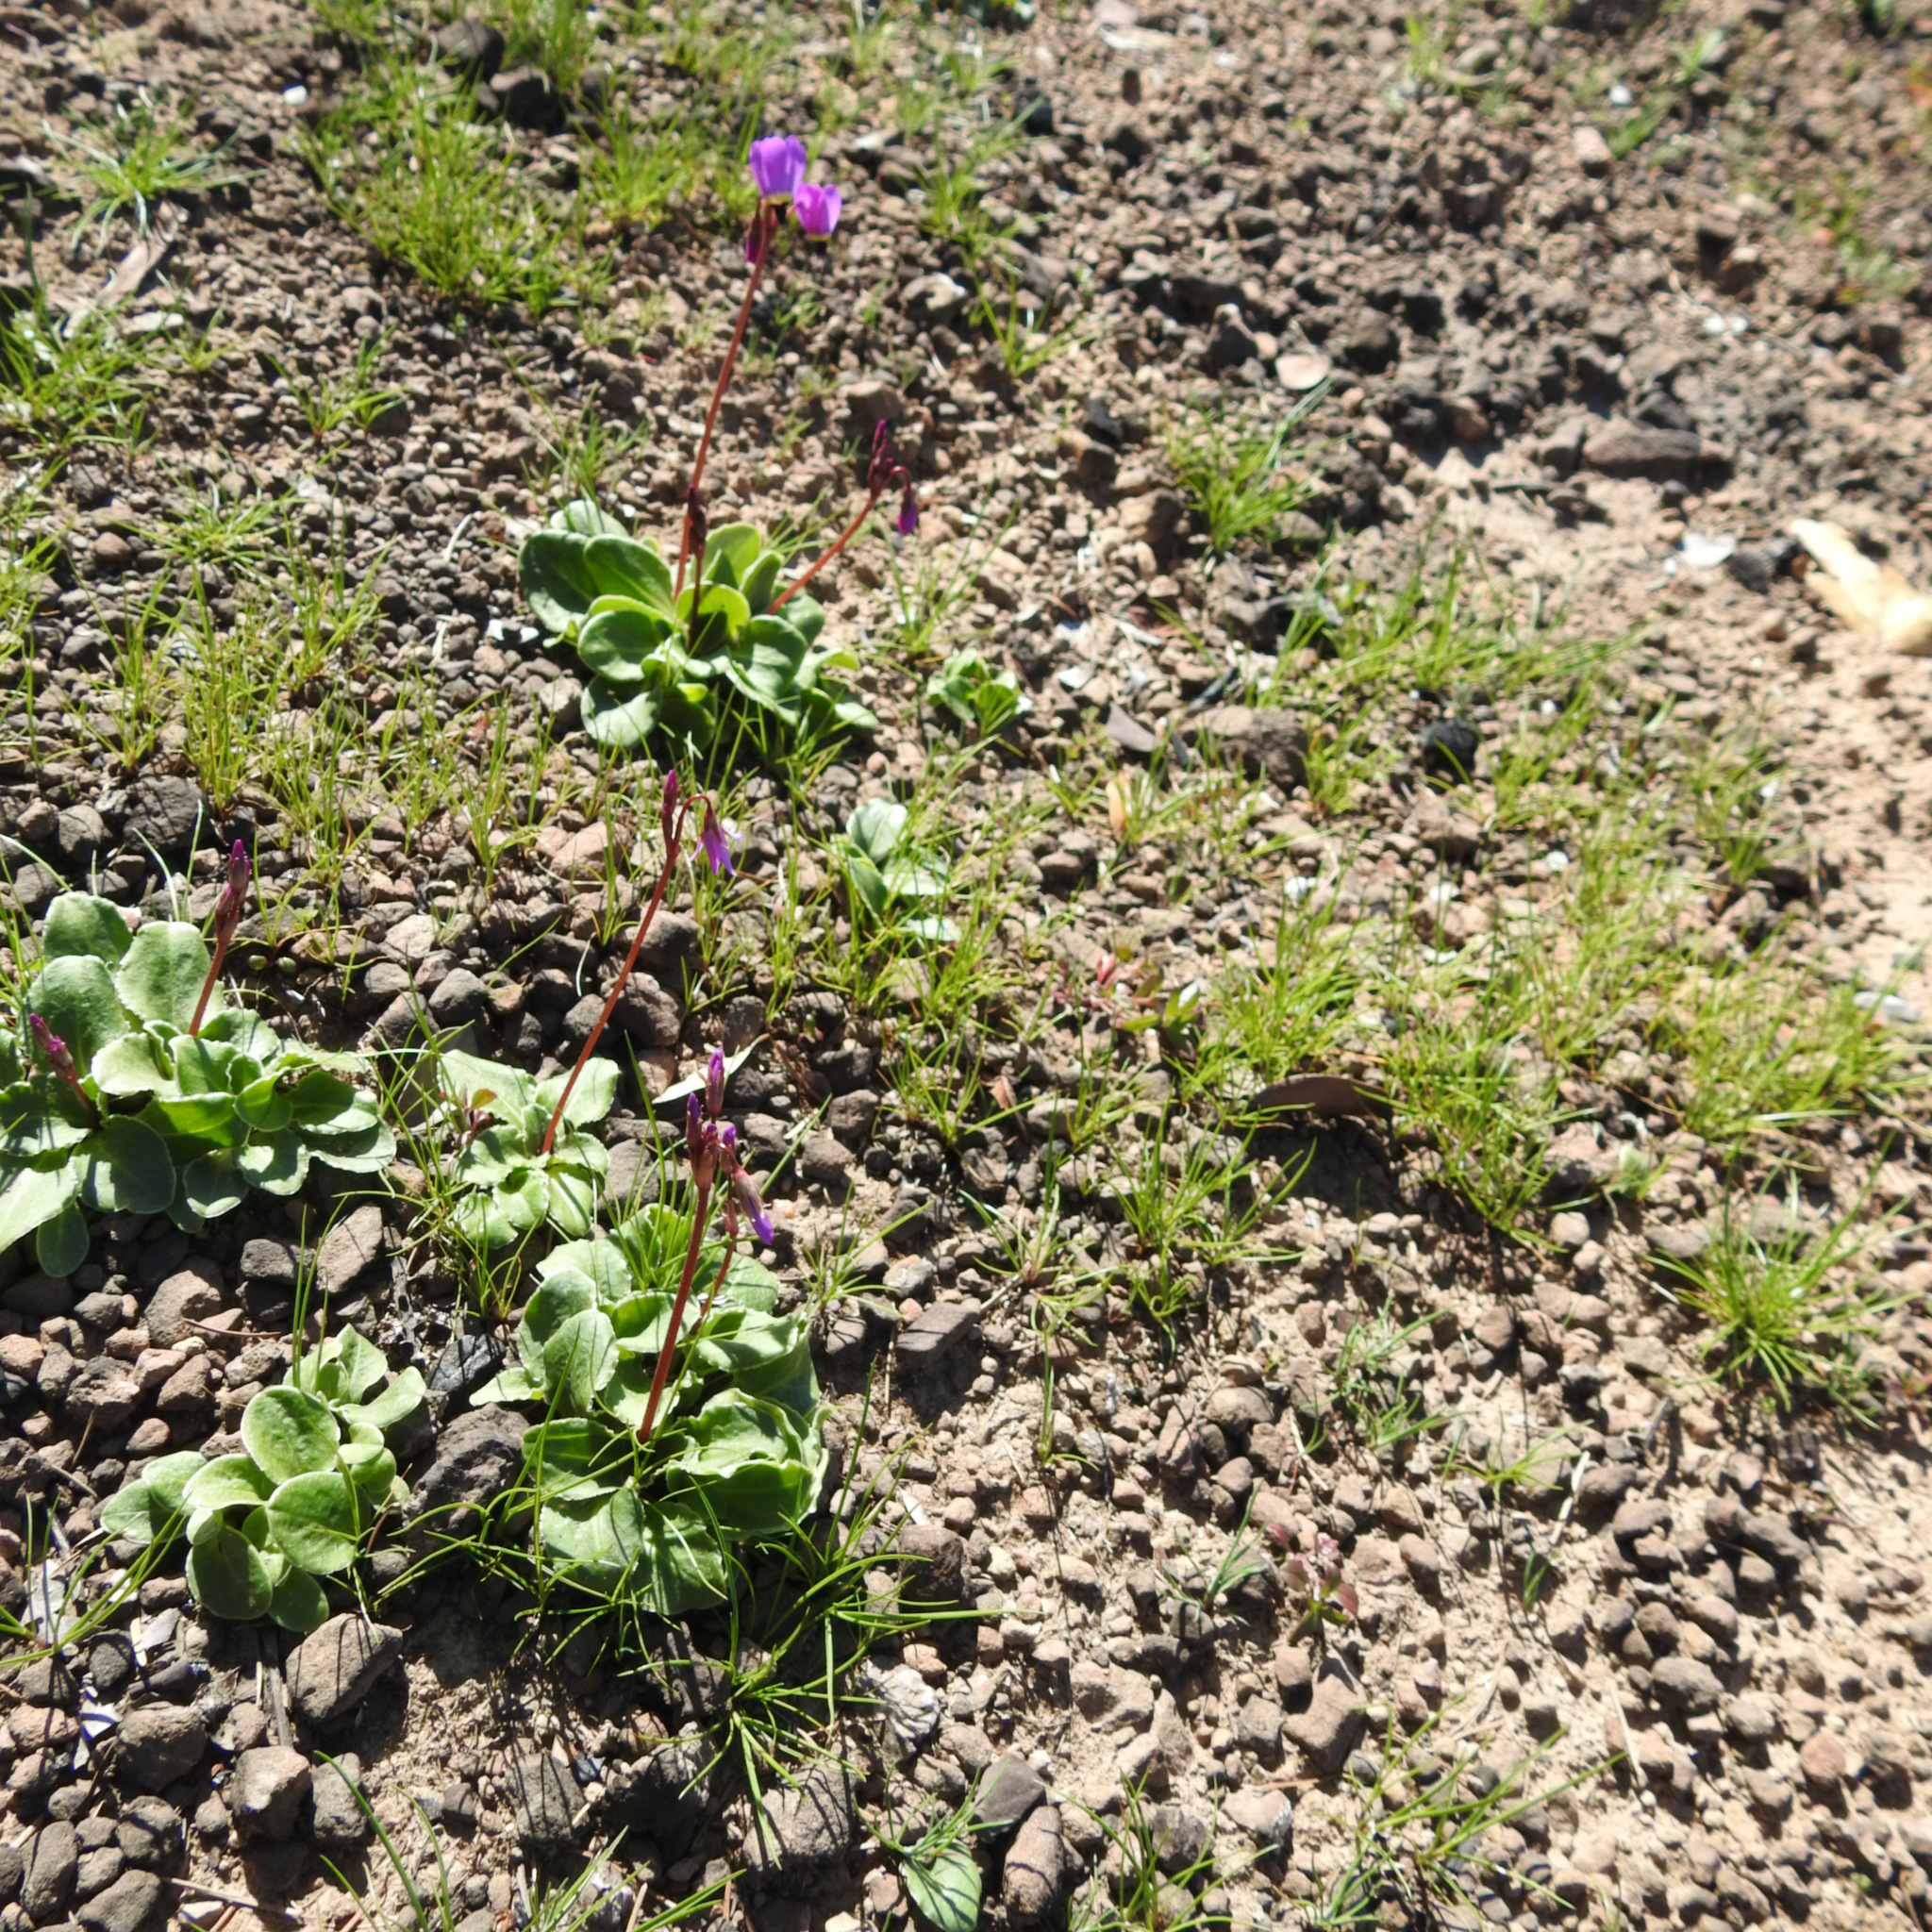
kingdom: Plantae
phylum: Tracheophyta
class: Magnoliopsida
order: Ericales
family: Primulaceae
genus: Dodecatheon
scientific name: Dodecatheon hendersonii
